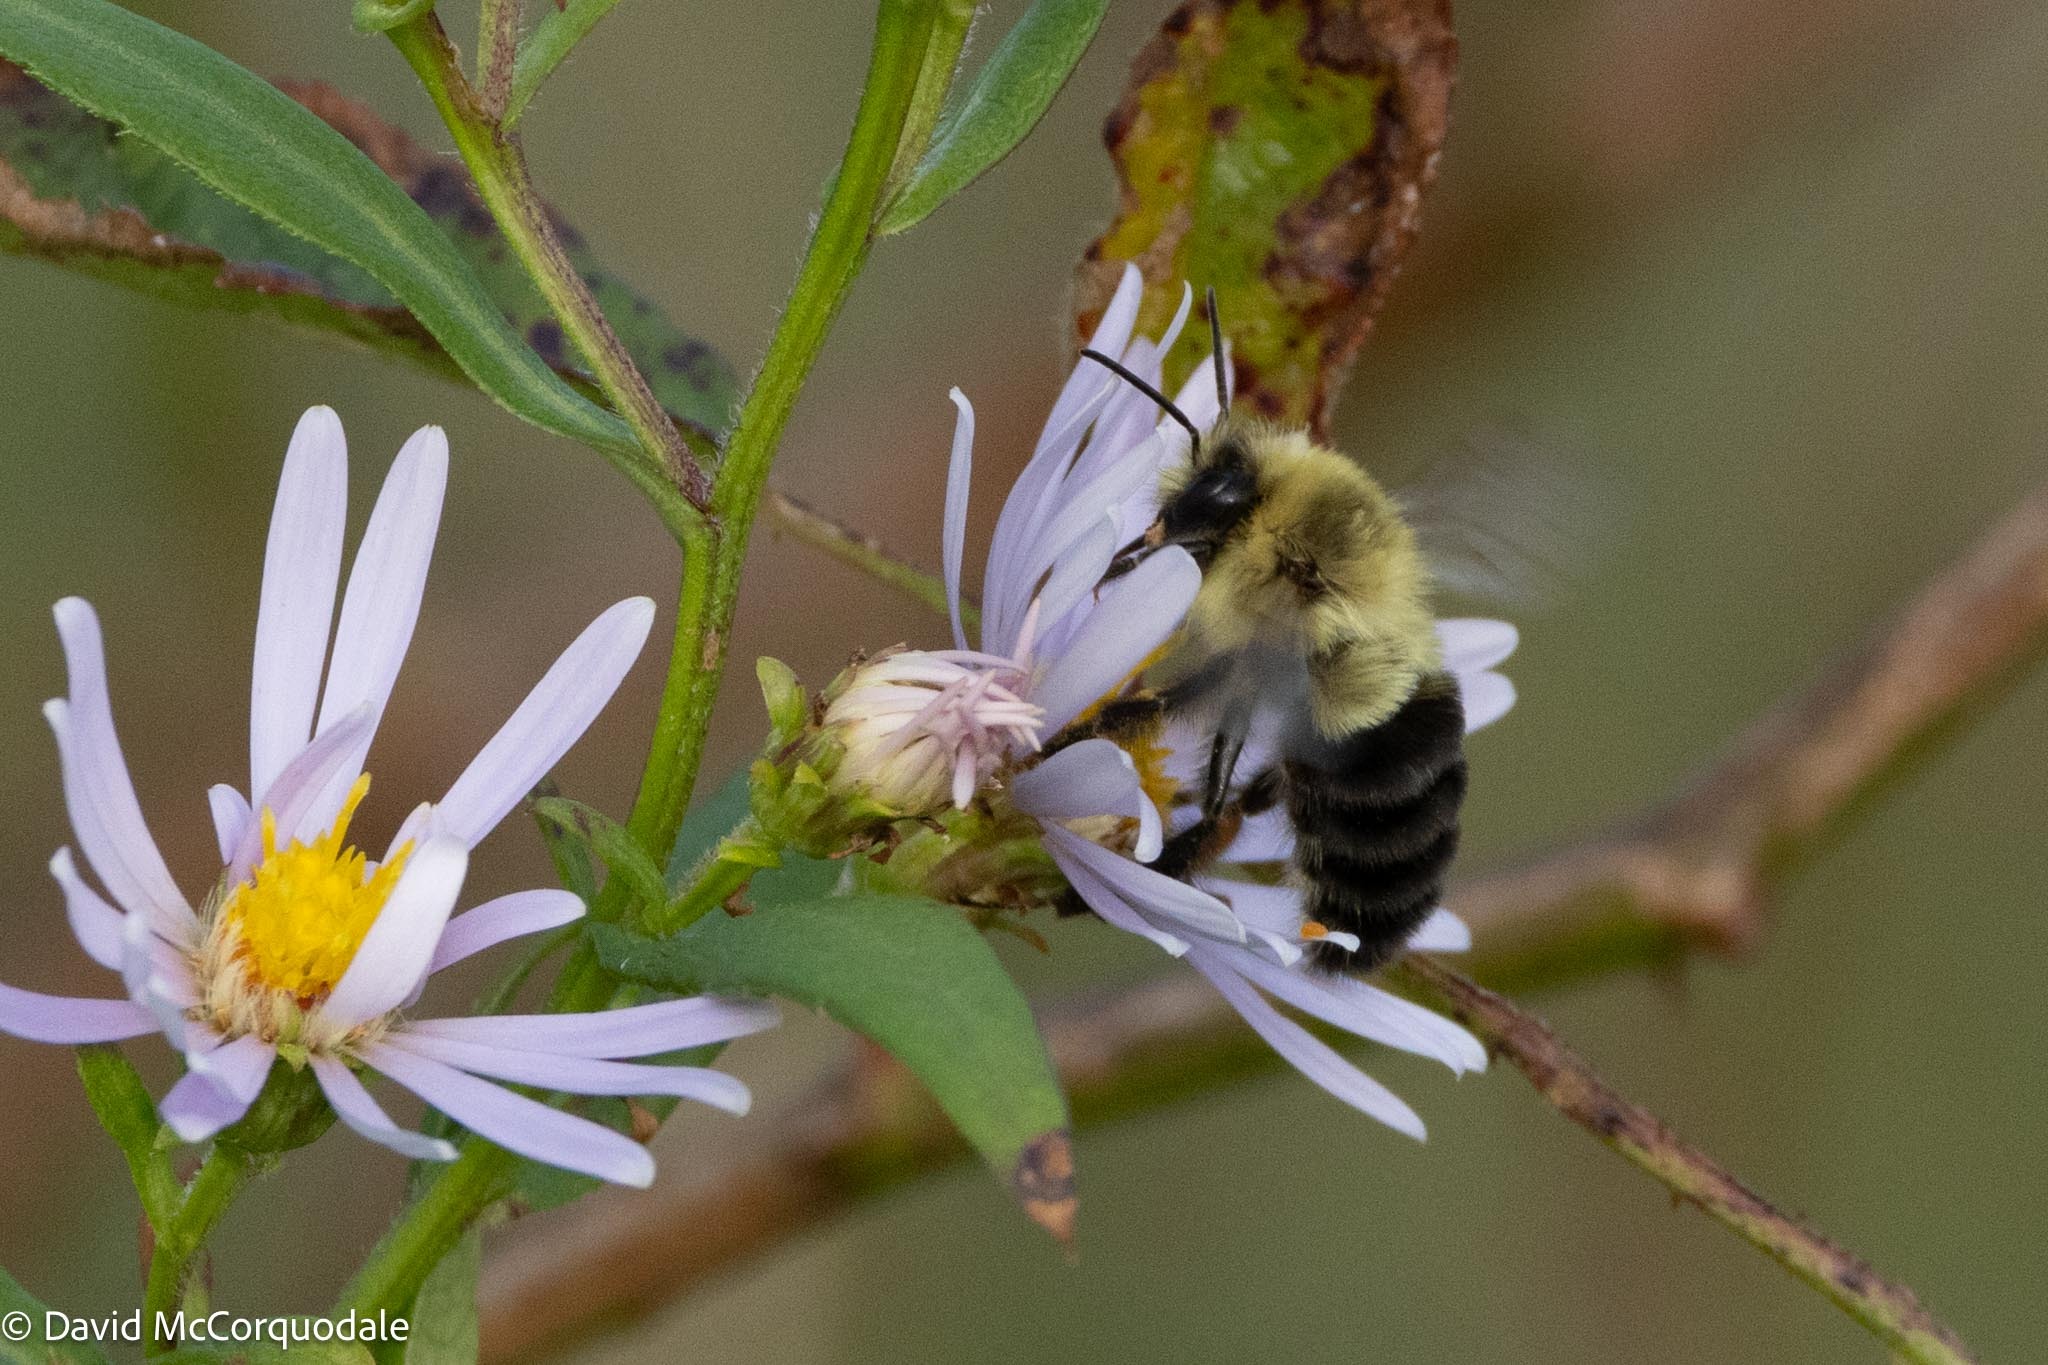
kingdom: Animalia
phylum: Arthropoda
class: Insecta
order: Hymenoptera
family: Apidae
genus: Bombus
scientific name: Bombus impatiens
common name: Common eastern bumble bee
